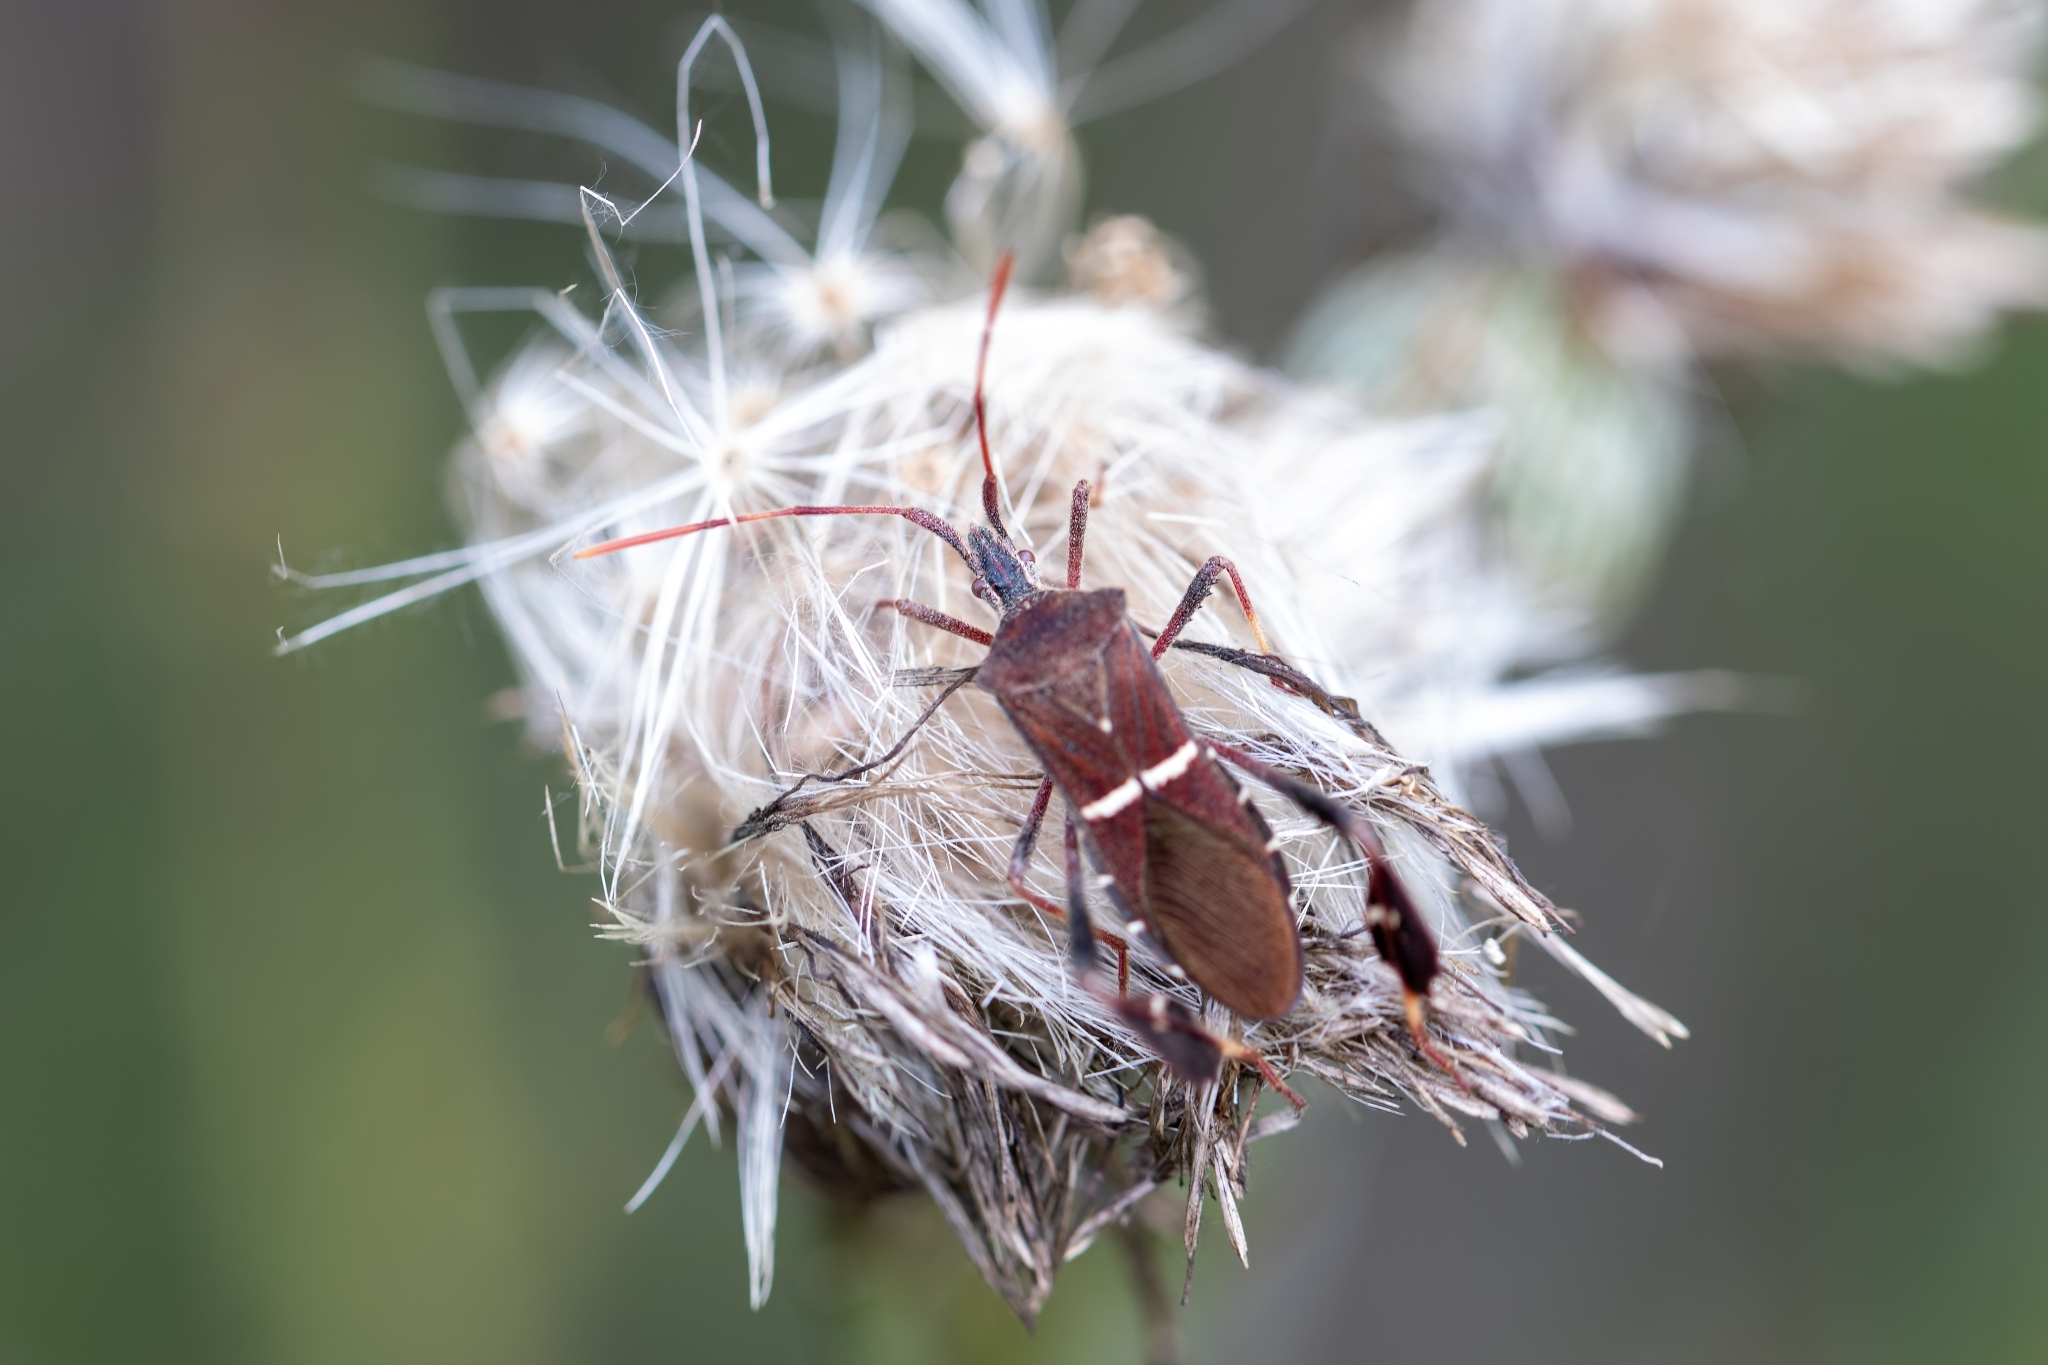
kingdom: Animalia
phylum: Arthropoda
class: Insecta
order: Hemiptera
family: Coreidae
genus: Leptoglossus
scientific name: Leptoglossus phyllopus
